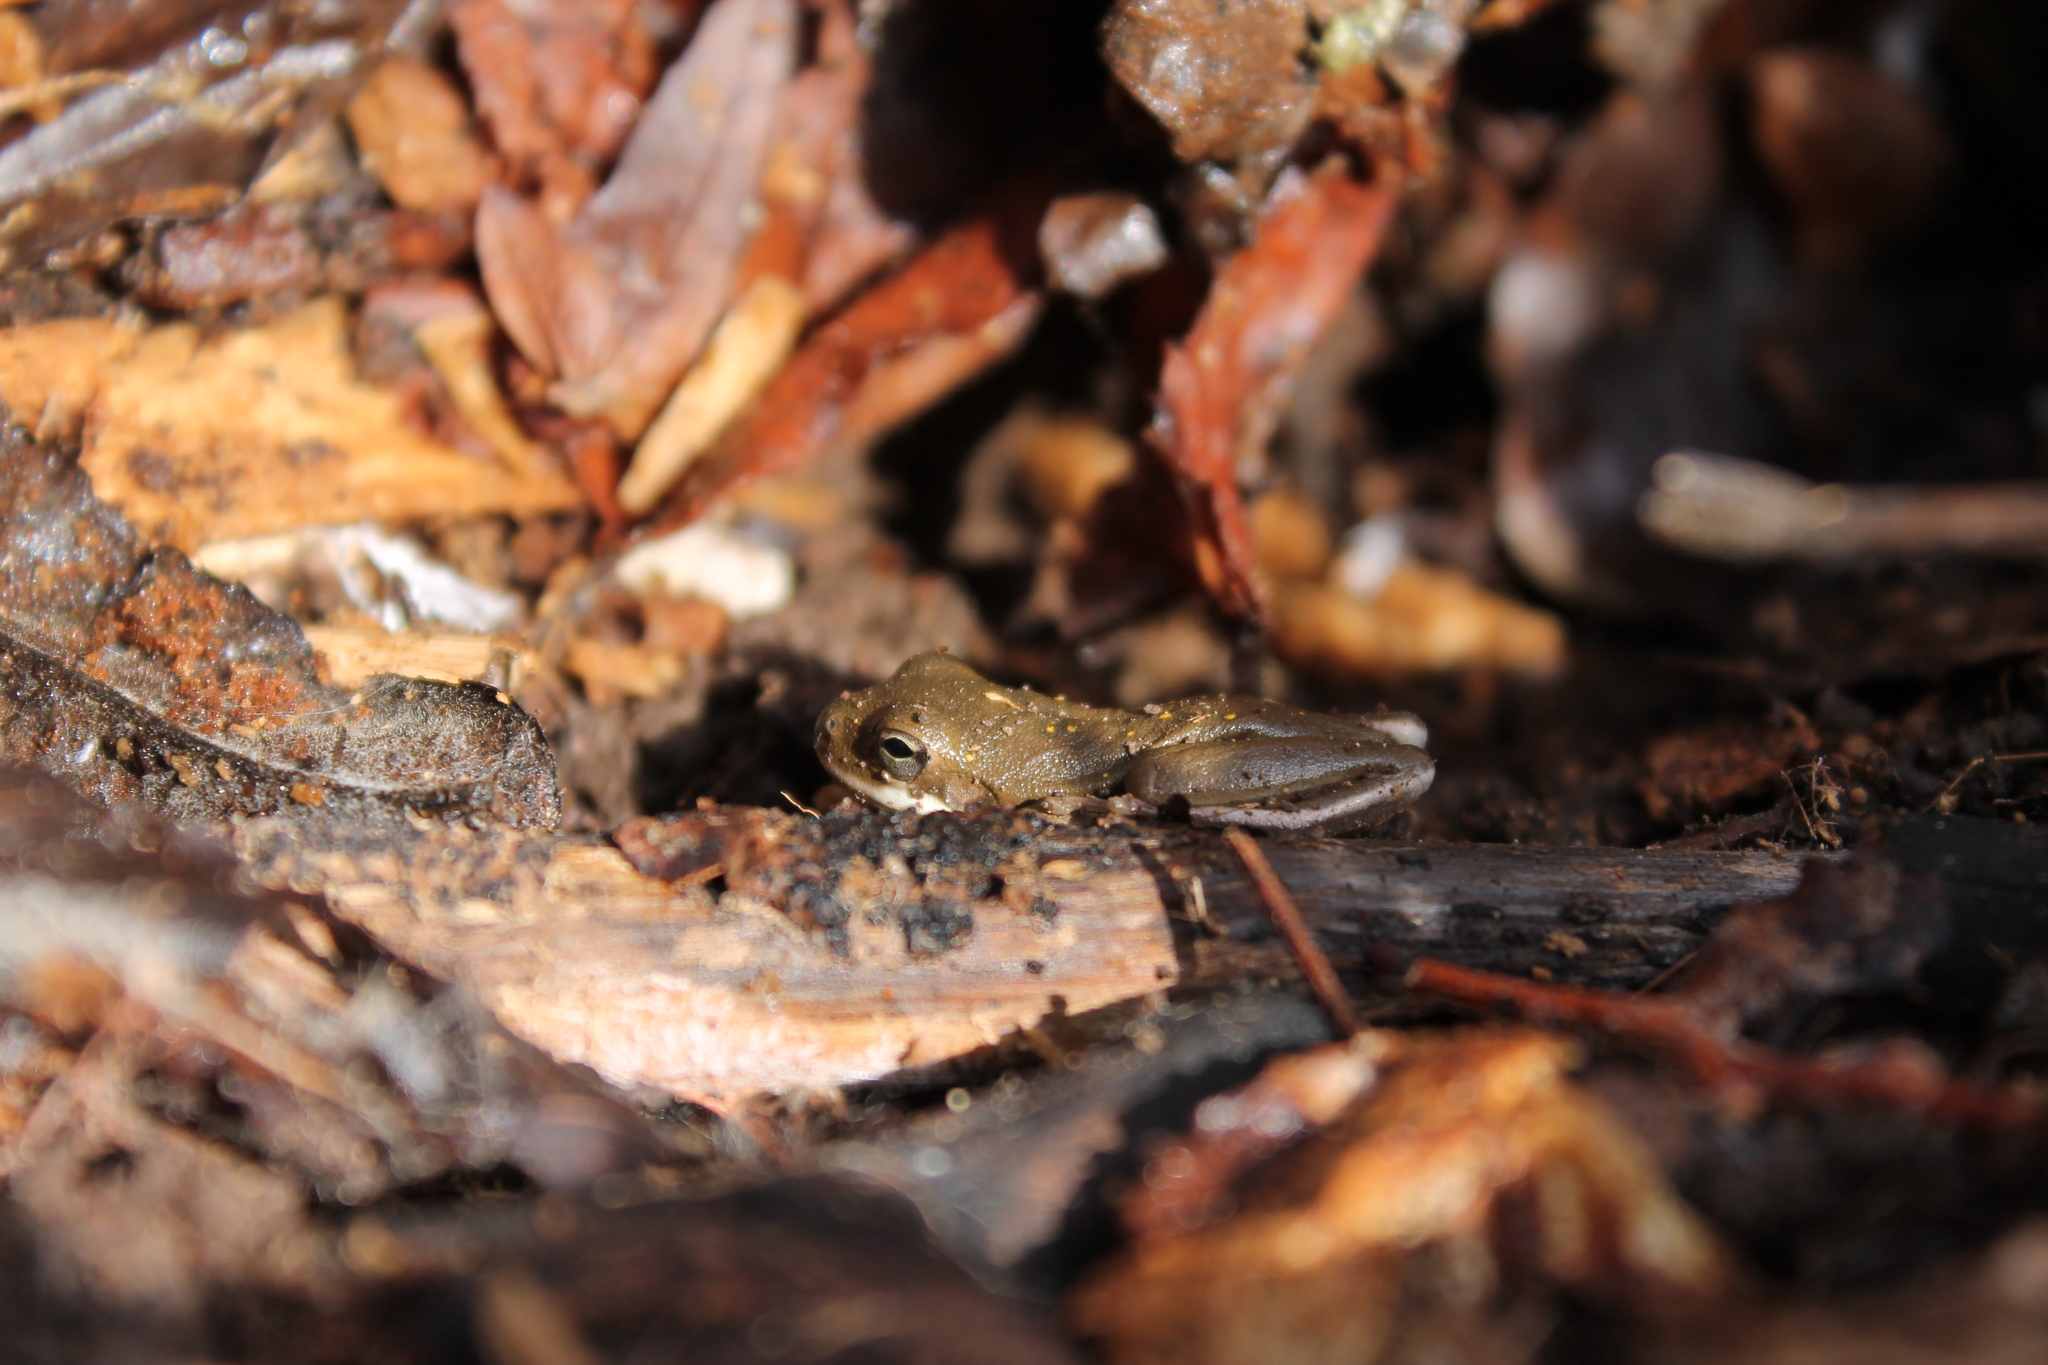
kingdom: Animalia
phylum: Chordata
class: Amphibia
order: Anura
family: Hylidae
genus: Dryophytes
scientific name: Dryophytes cinereus
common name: Green treefrog
